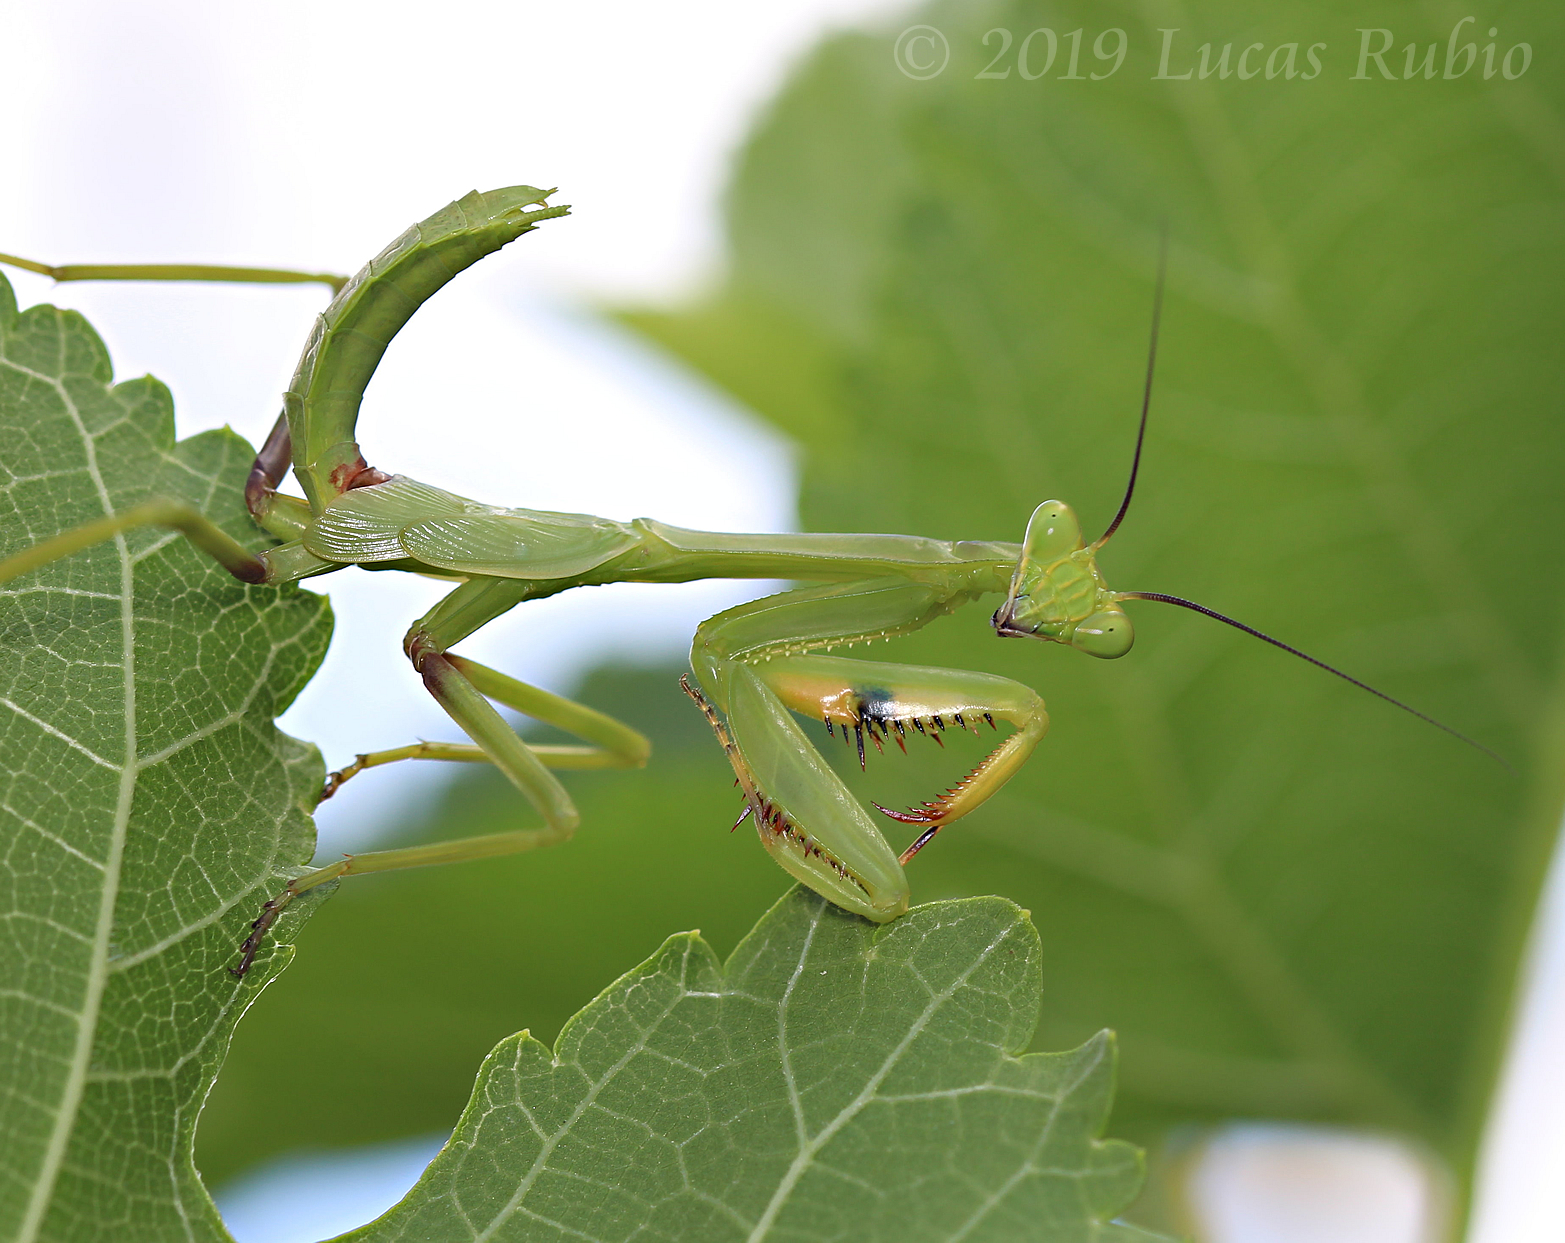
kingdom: Animalia
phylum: Arthropoda
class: Insecta
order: Mantodea
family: Mantidae
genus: Stagmatoptera
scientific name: Stagmatoptera hyaloptera
